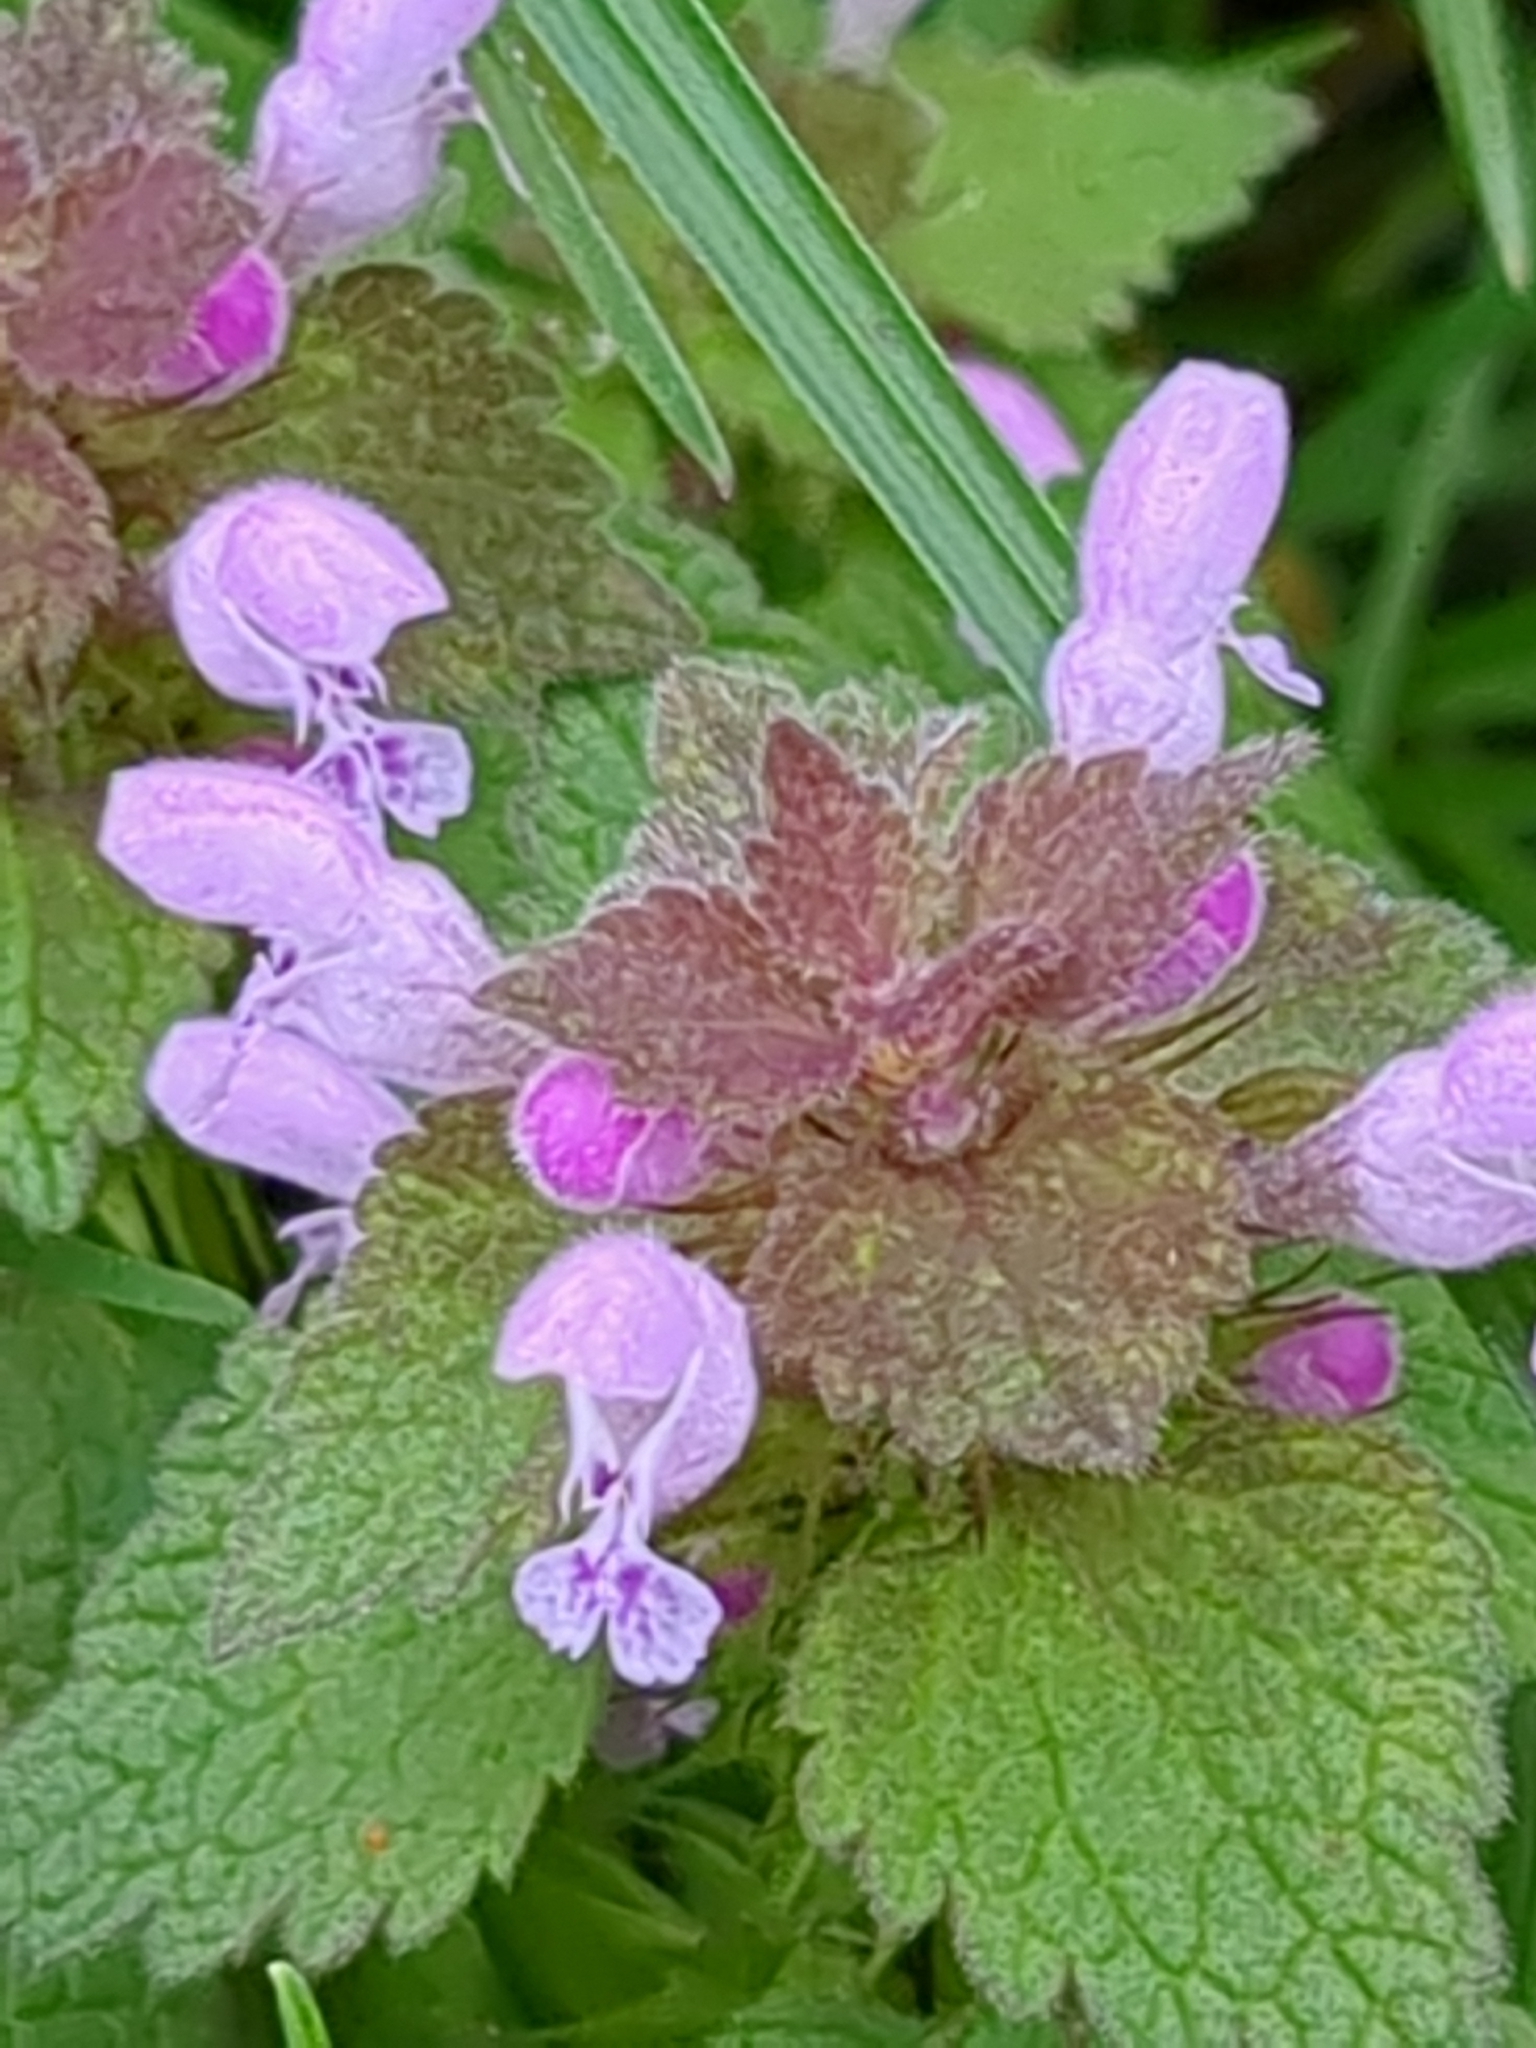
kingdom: Plantae
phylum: Tracheophyta
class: Magnoliopsida
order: Lamiales
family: Lamiaceae
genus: Lamium
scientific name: Lamium purpureum
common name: Red dead-nettle
